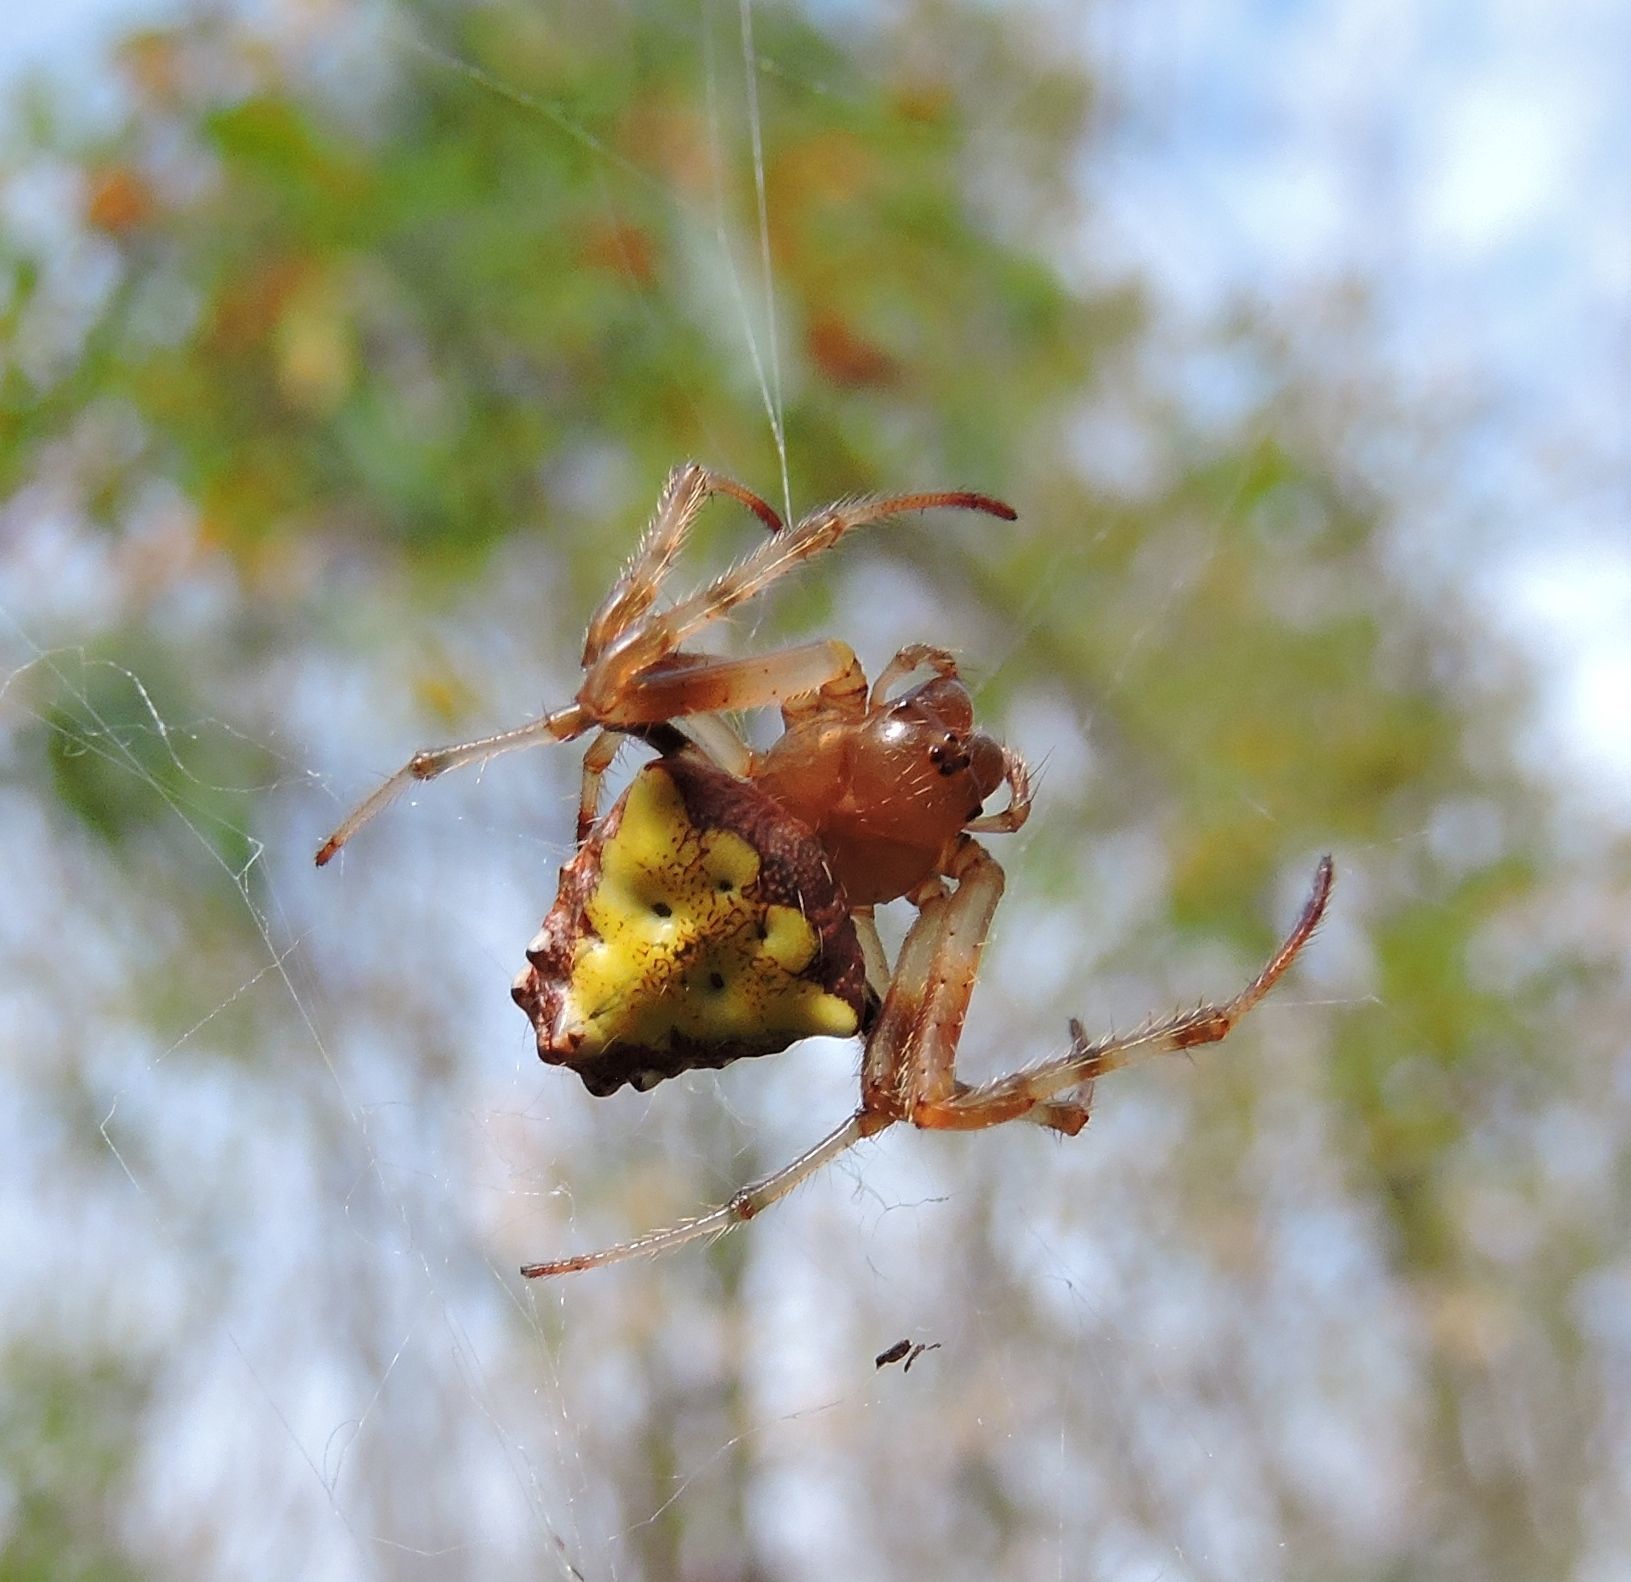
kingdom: Animalia
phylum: Arthropoda
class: Arachnida
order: Araneae
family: Araneidae
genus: Verrucosa
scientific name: Verrucosa arenata
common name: Orb weavers
